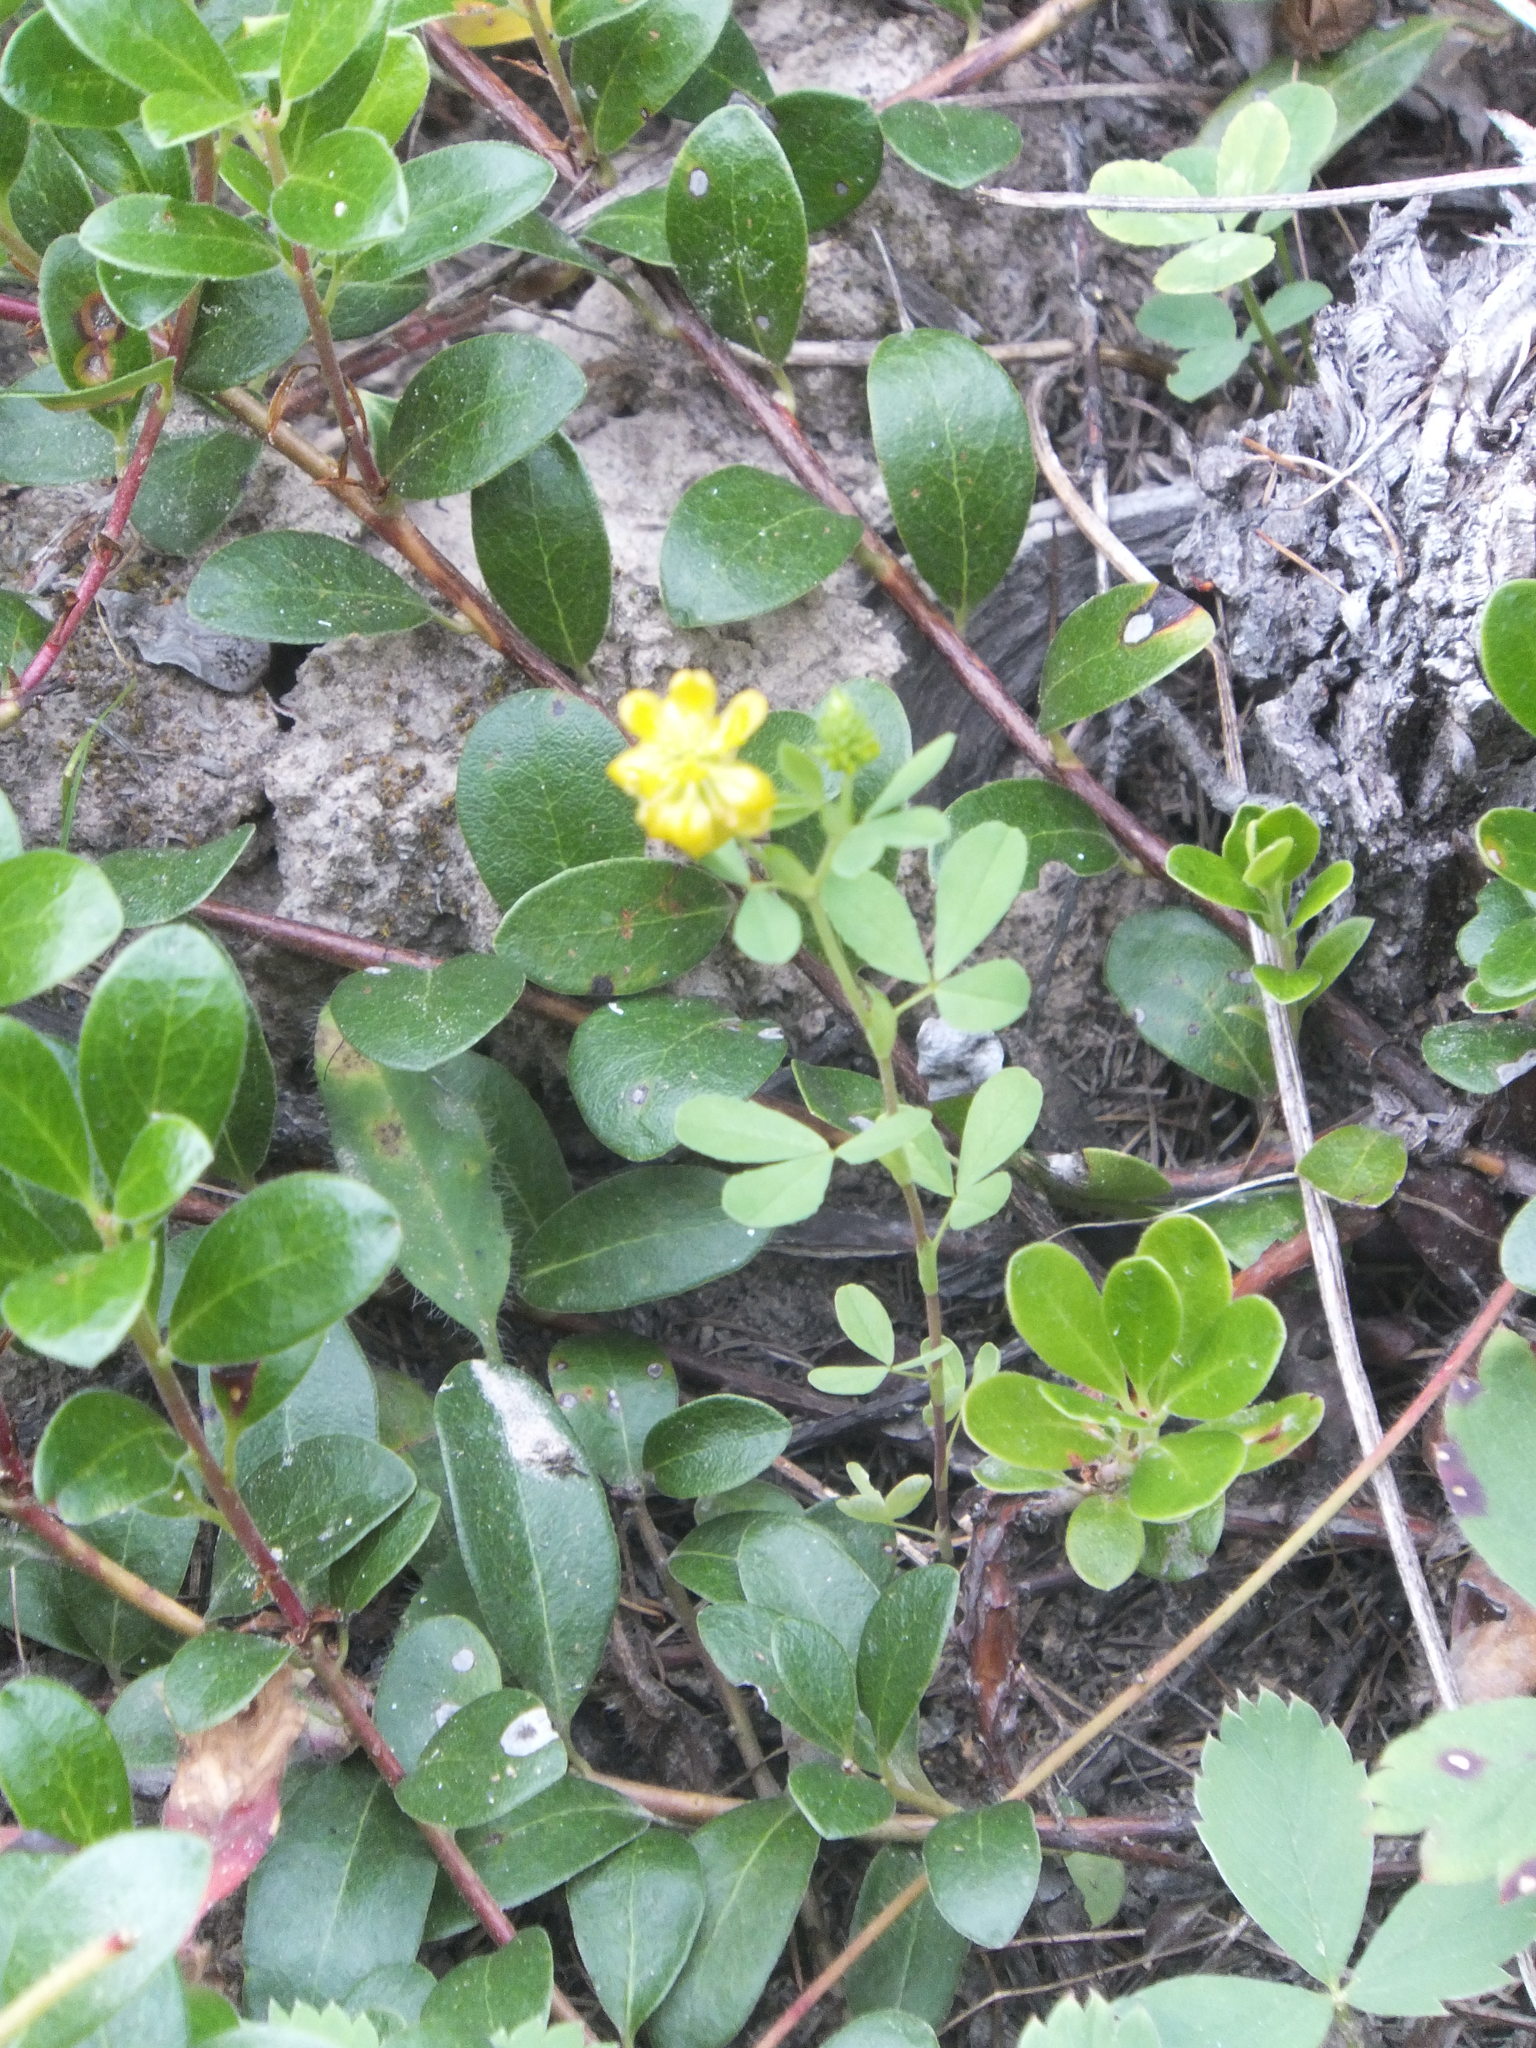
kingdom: Plantae
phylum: Tracheophyta
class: Magnoliopsida
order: Fabales
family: Fabaceae
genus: Trifolium
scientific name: Trifolium aureum
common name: Golden clover
